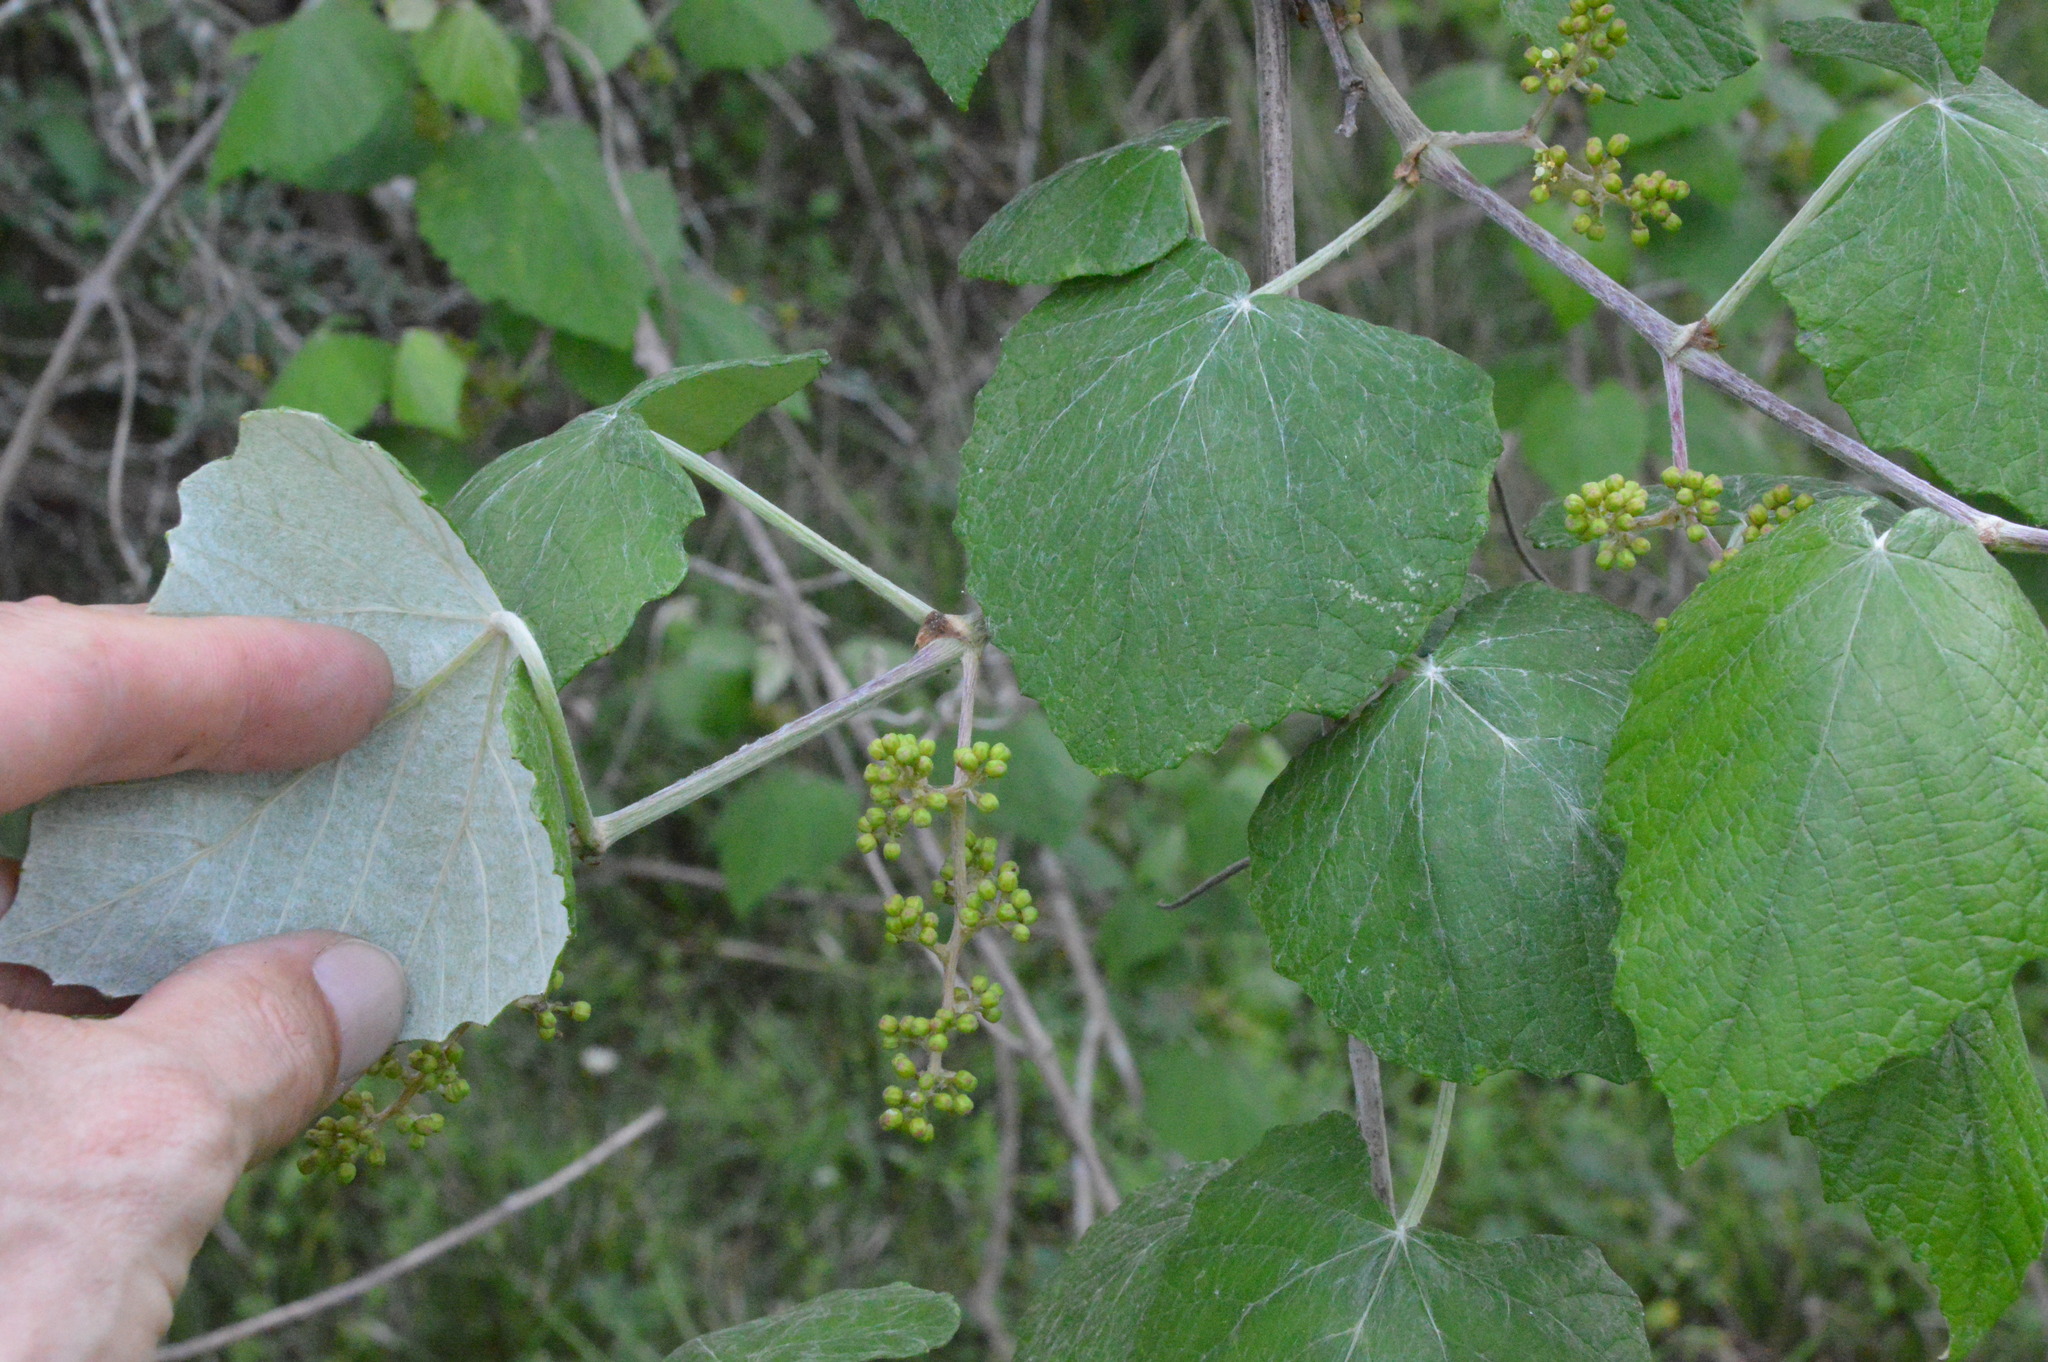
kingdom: Plantae
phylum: Tracheophyta
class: Magnoliopsida
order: Vitales
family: Vitaceae
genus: Vitis
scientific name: Vitis mustangensis
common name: Mustang grape
